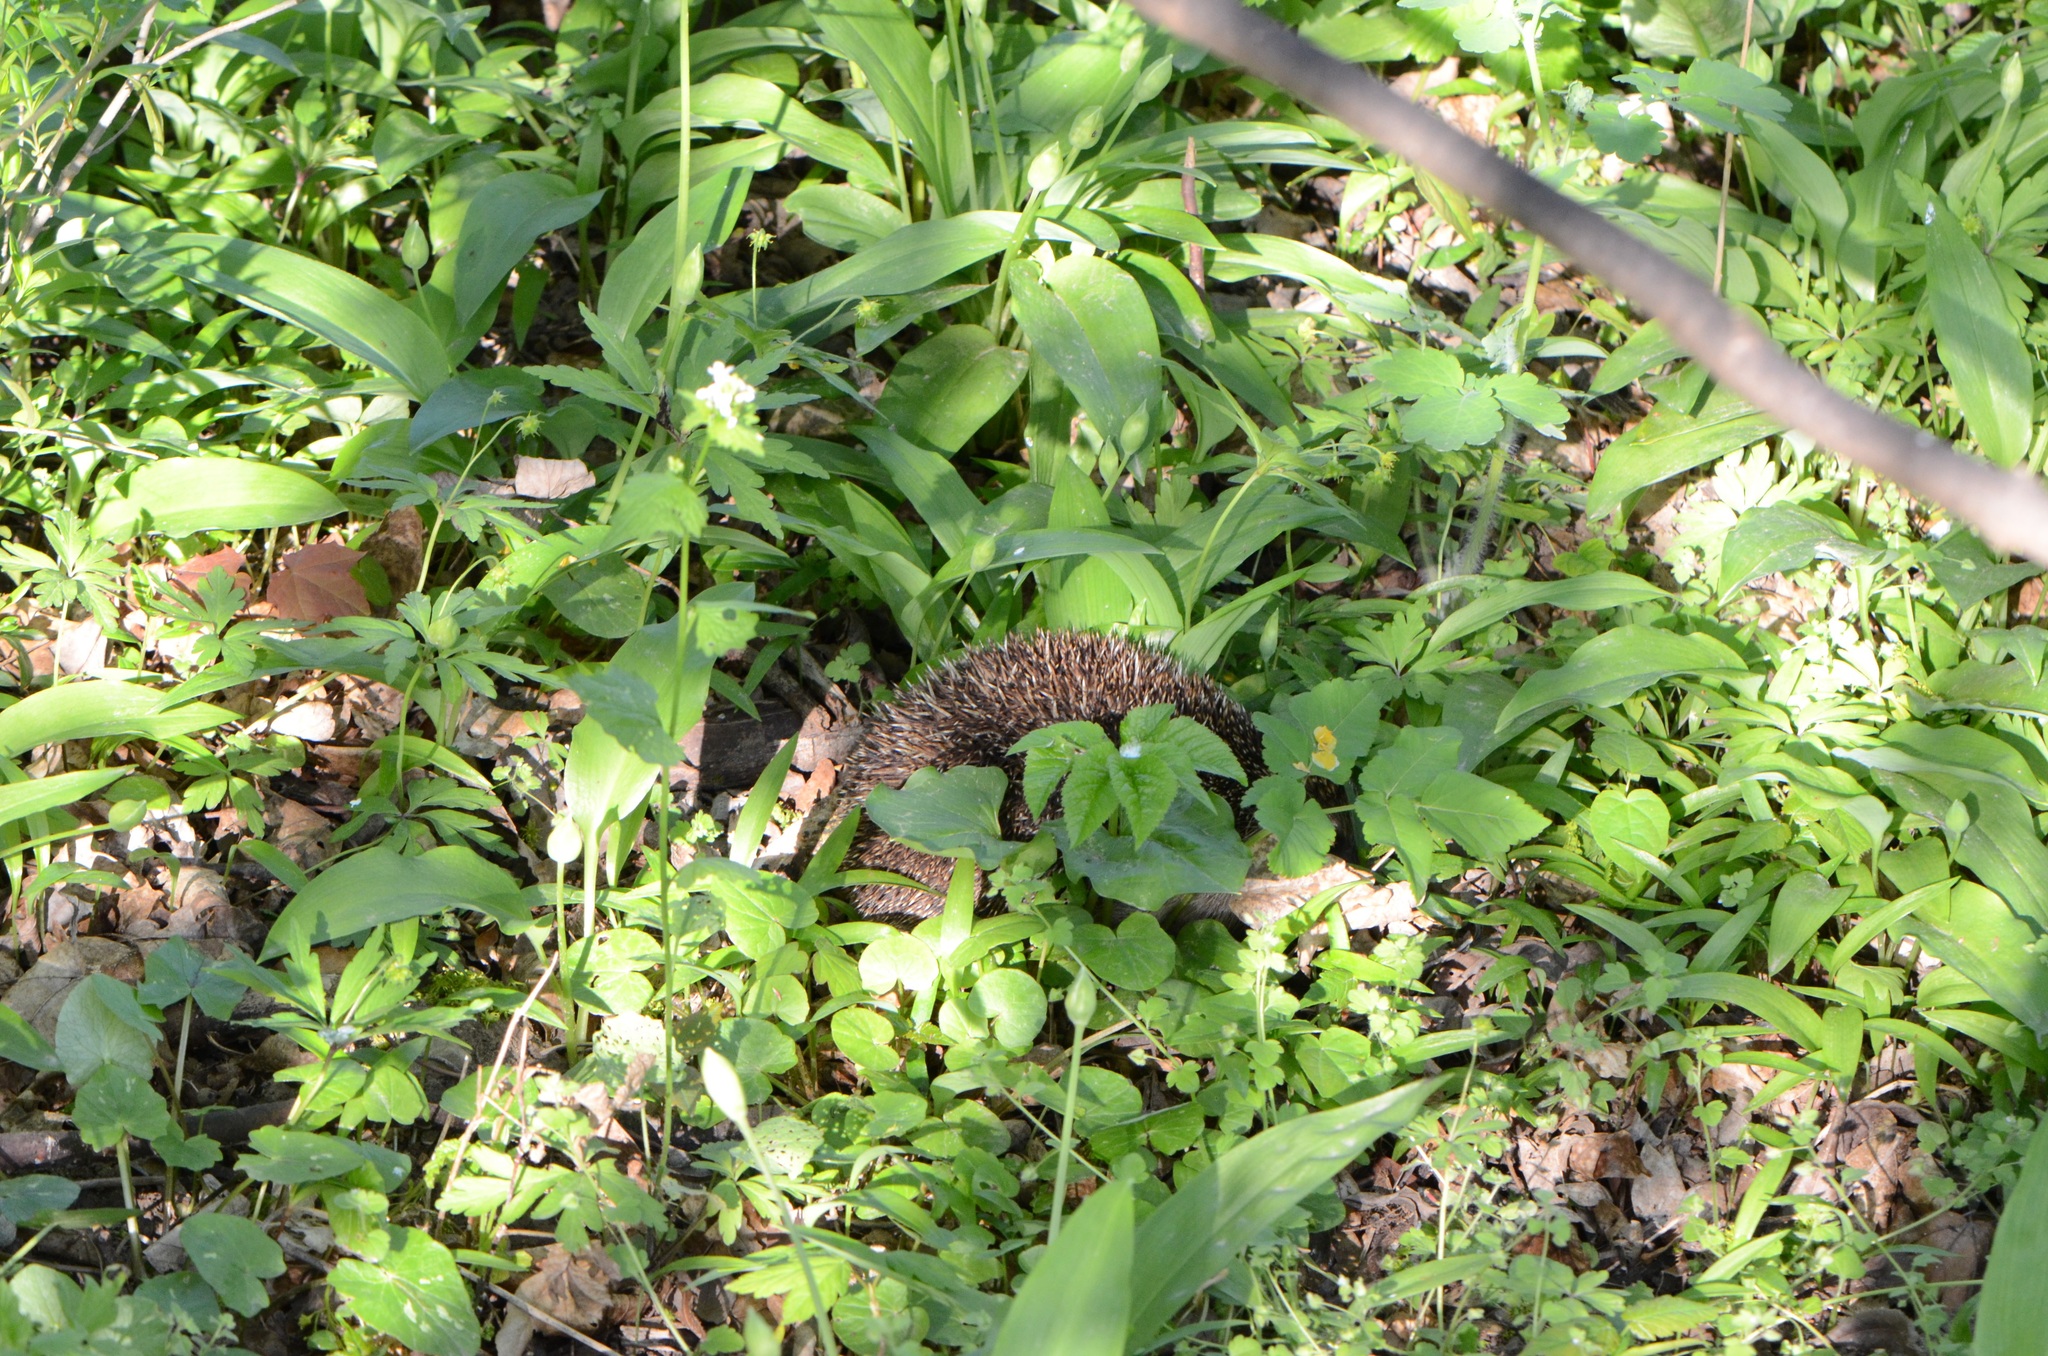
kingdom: Plantae
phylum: Tracheophyta
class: Liliopsida
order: Asparagales
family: Amaryllidaceae
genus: Allium
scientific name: Allium ursinum
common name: Ramsons
